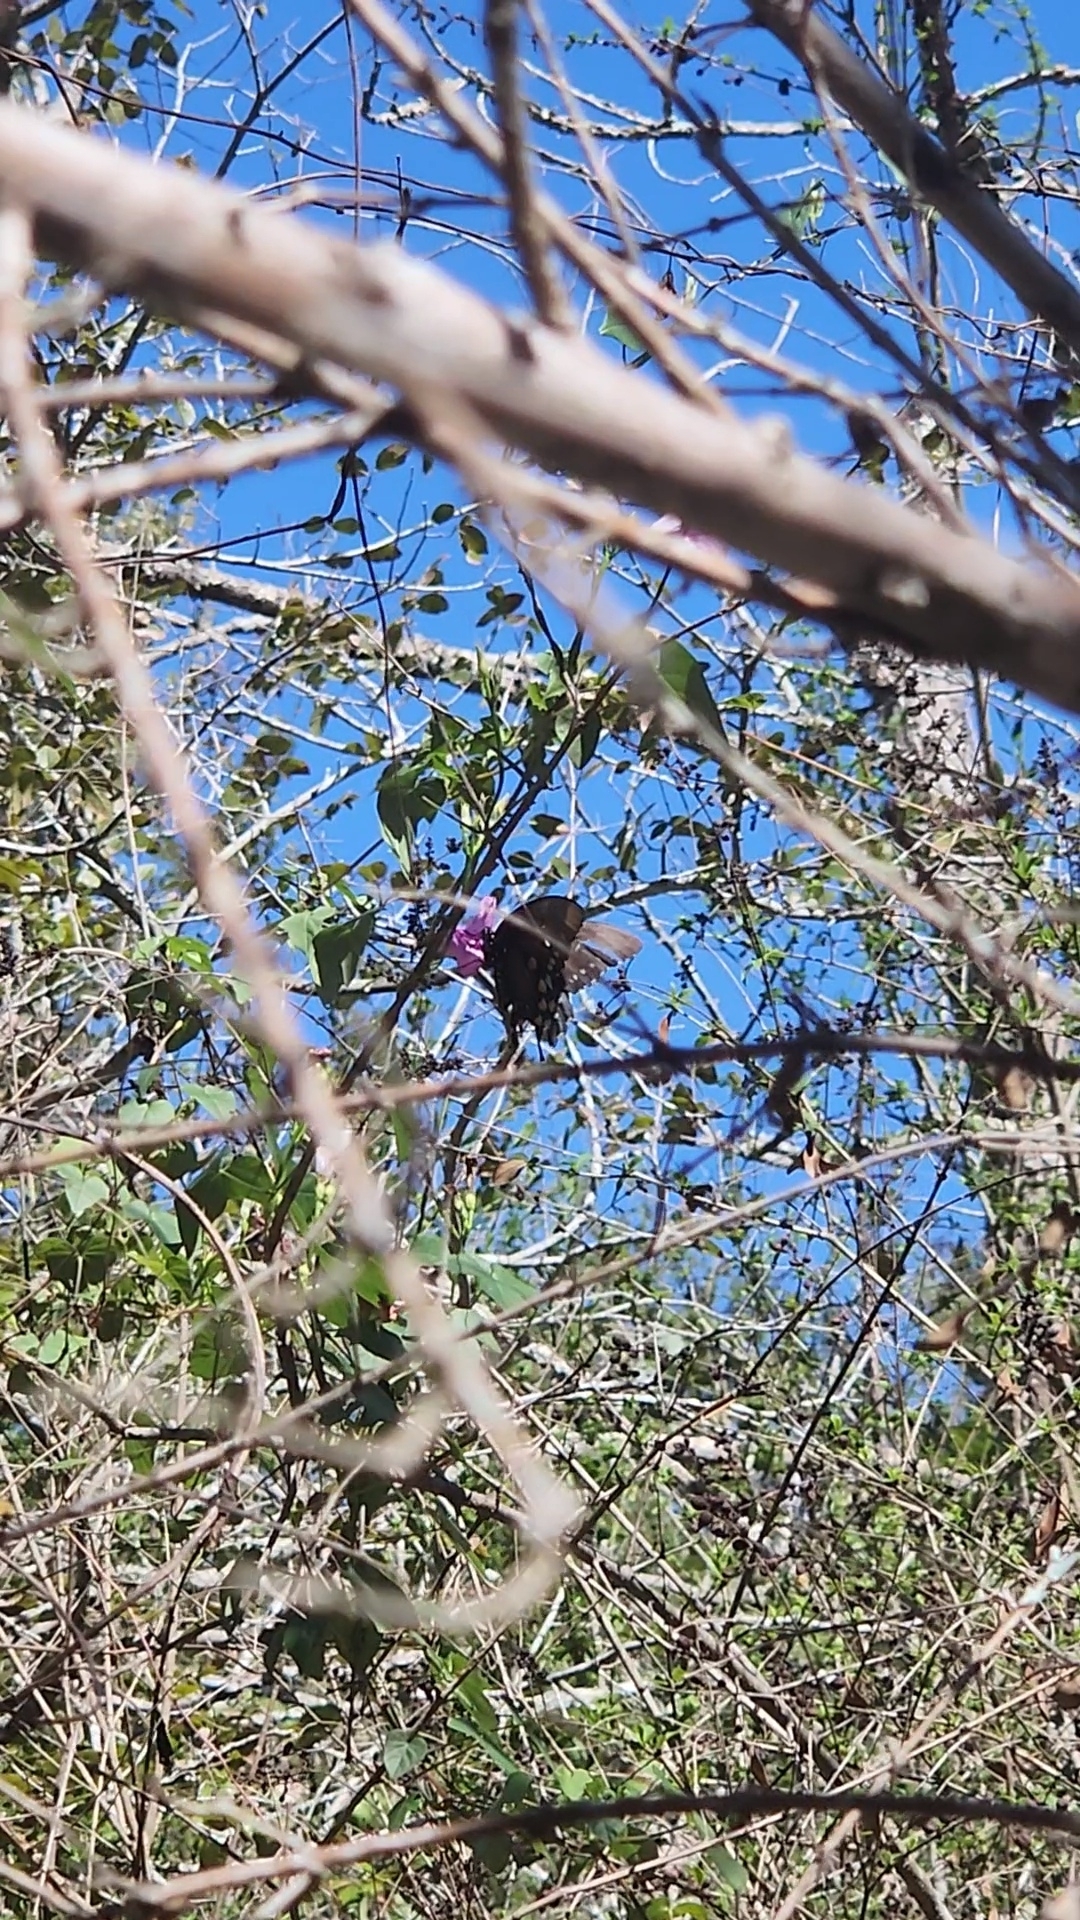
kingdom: Animalia
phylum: Arthropoda
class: Insecta
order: Lepidoptera
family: Papilionidae
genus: Battus
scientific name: Battus philenor
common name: Pipevine swallowtail
